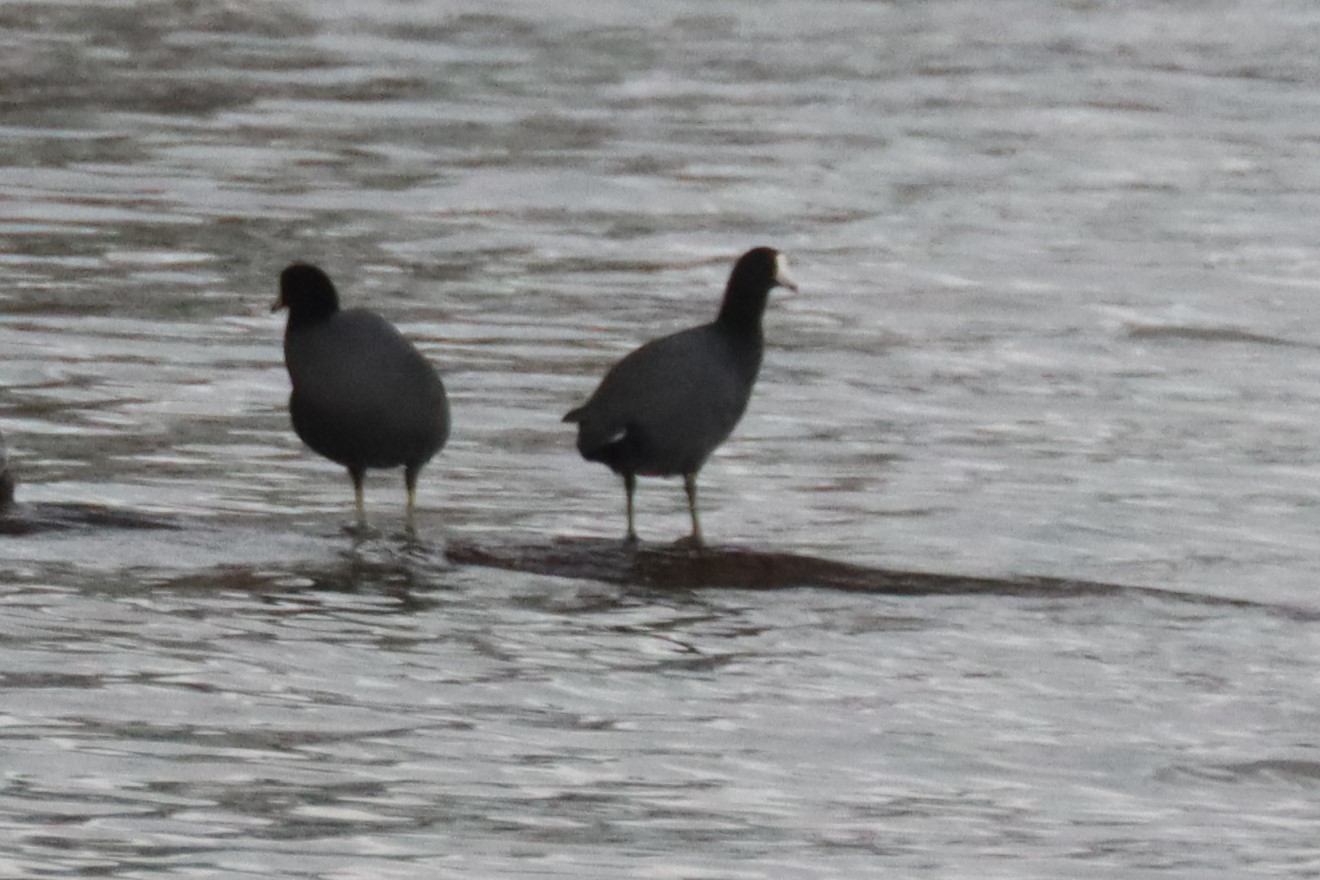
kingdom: Animalia
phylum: Chordata
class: Aves
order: Gruiformes
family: Rallidae
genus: Fulica
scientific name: Fulica americana
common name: American coot
